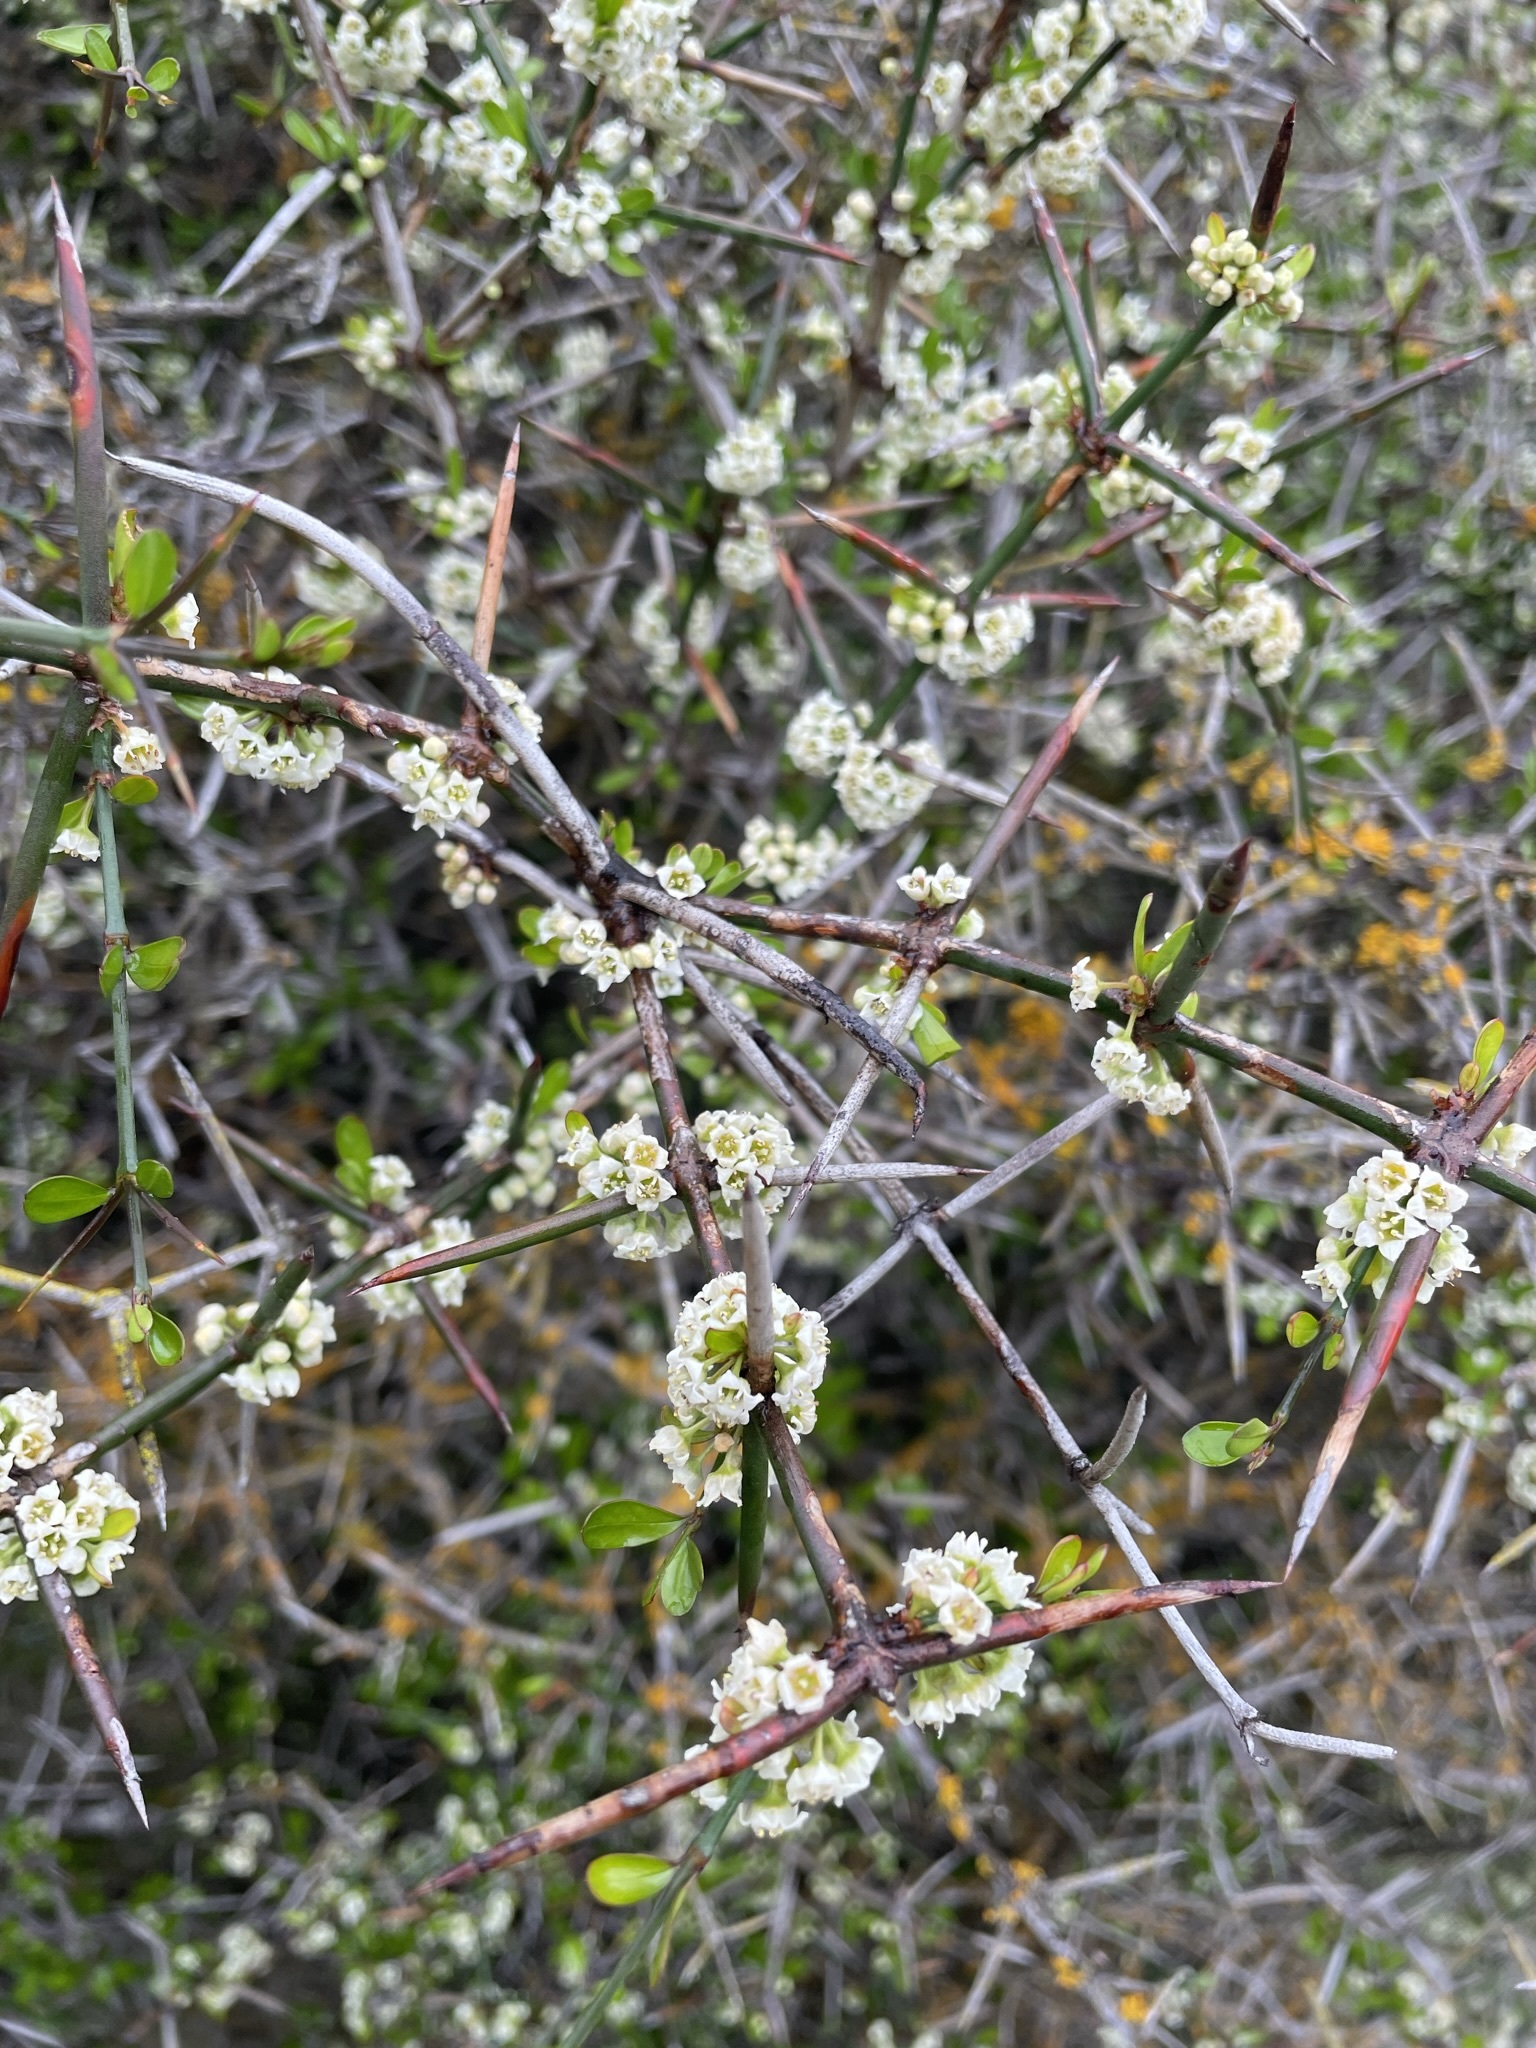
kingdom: Plantae
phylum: Tracheophyta
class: Magnoliopsida
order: Rosales
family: Rhamnaceae
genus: Discaria
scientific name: Discaria toumatou
